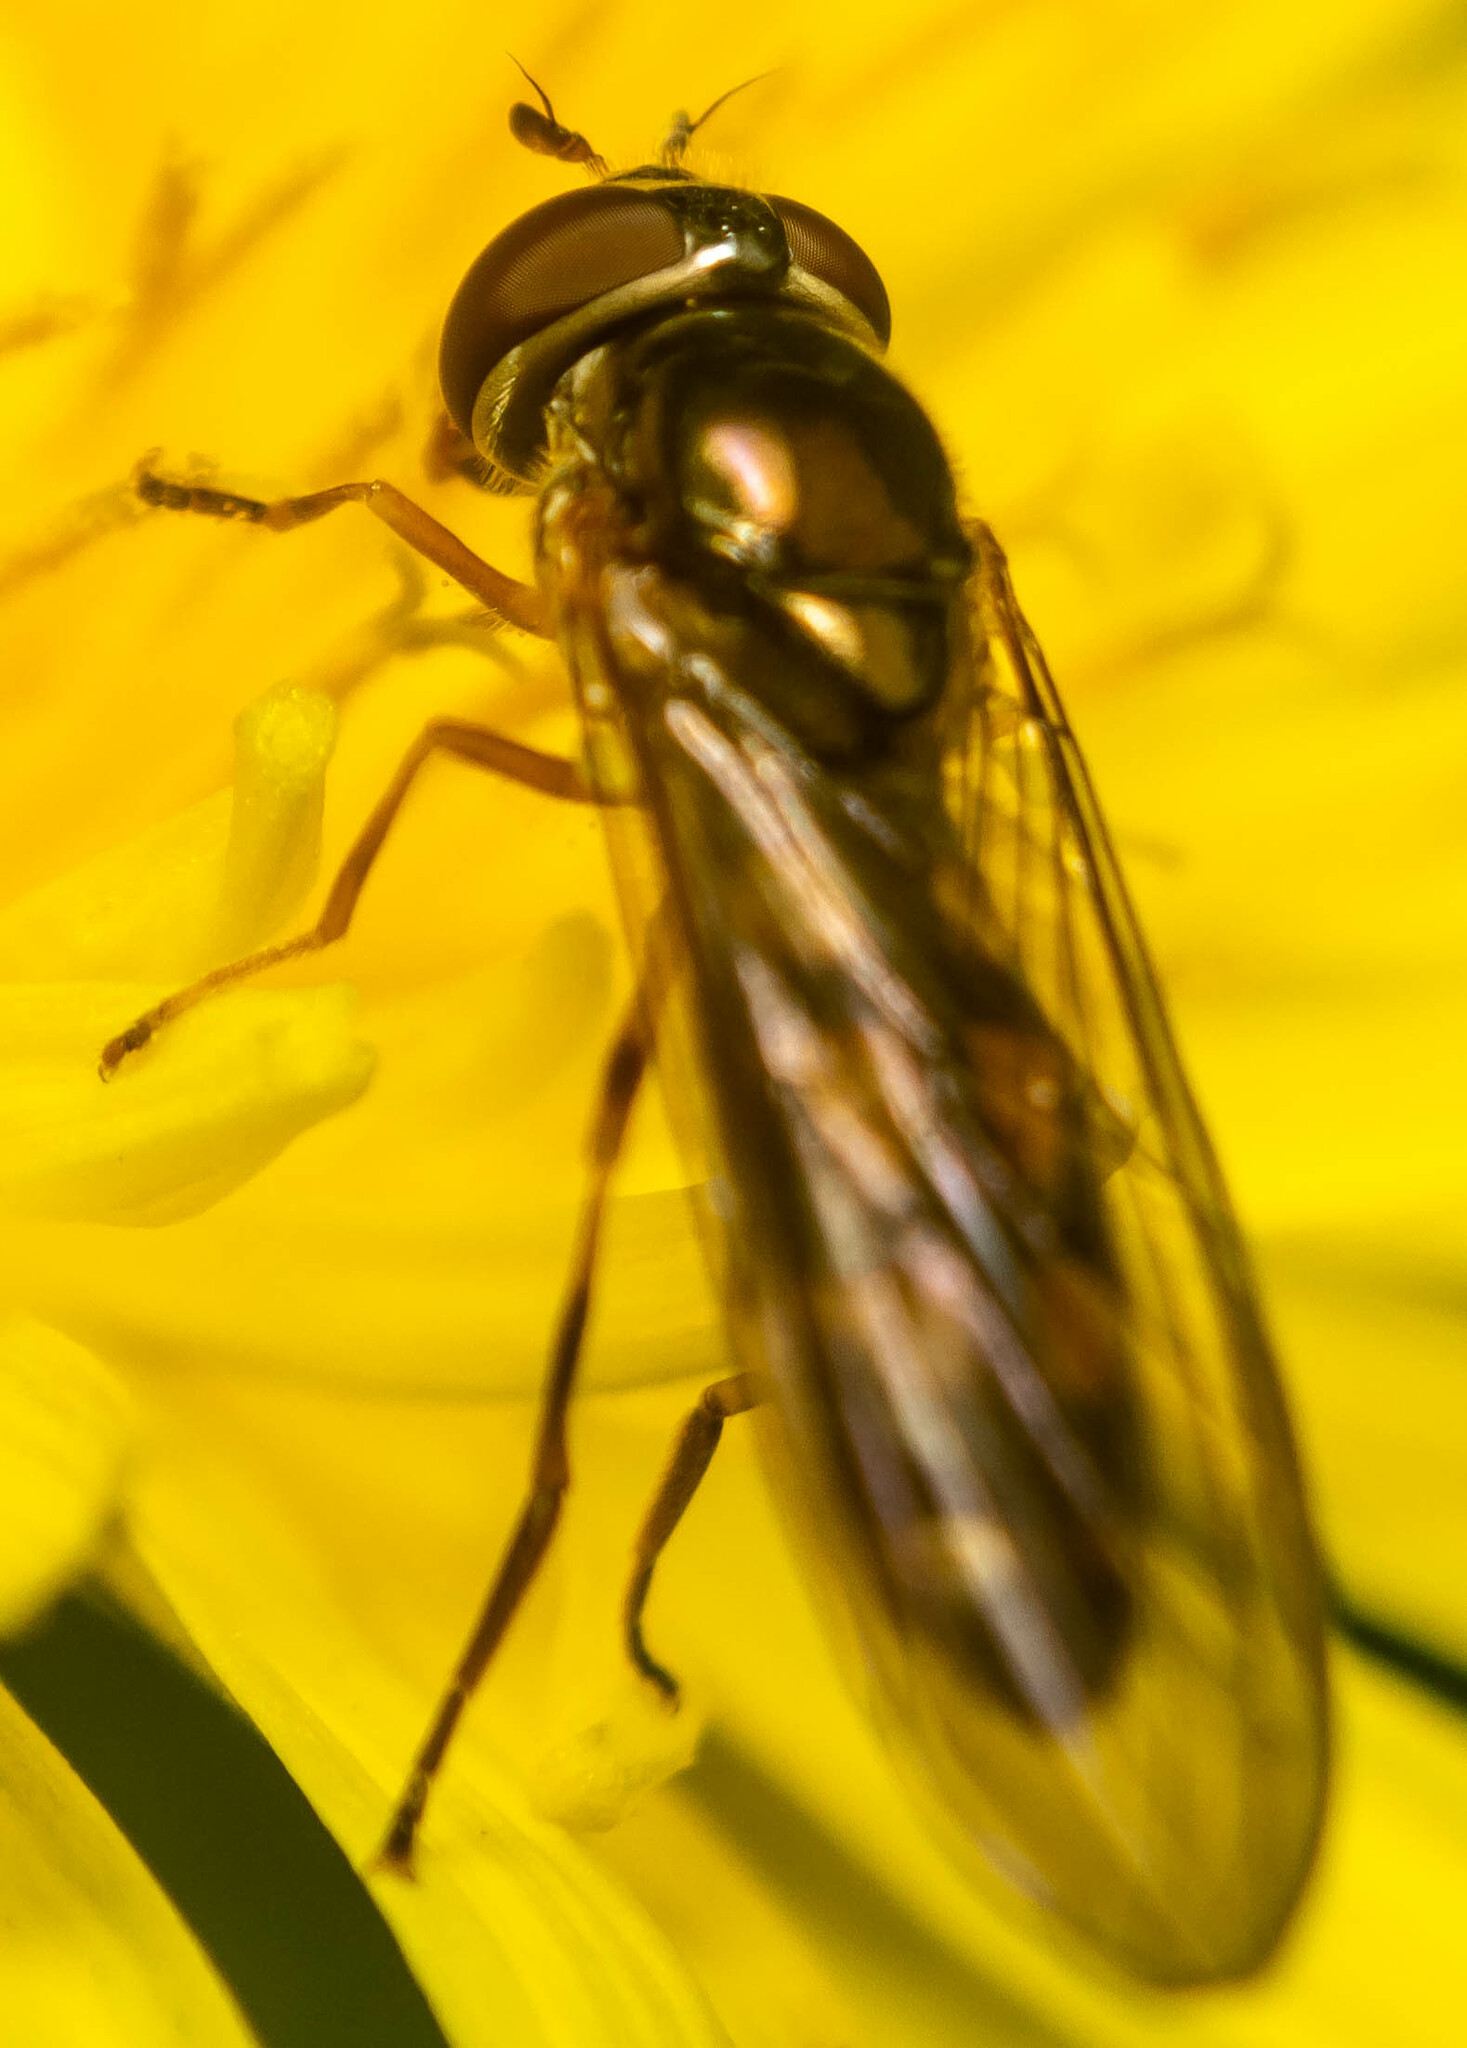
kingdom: Animalia
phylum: Arthropoda
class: Insecta
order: Diptera
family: Syrphidae
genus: Melanostoma
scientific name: Melanostoma
